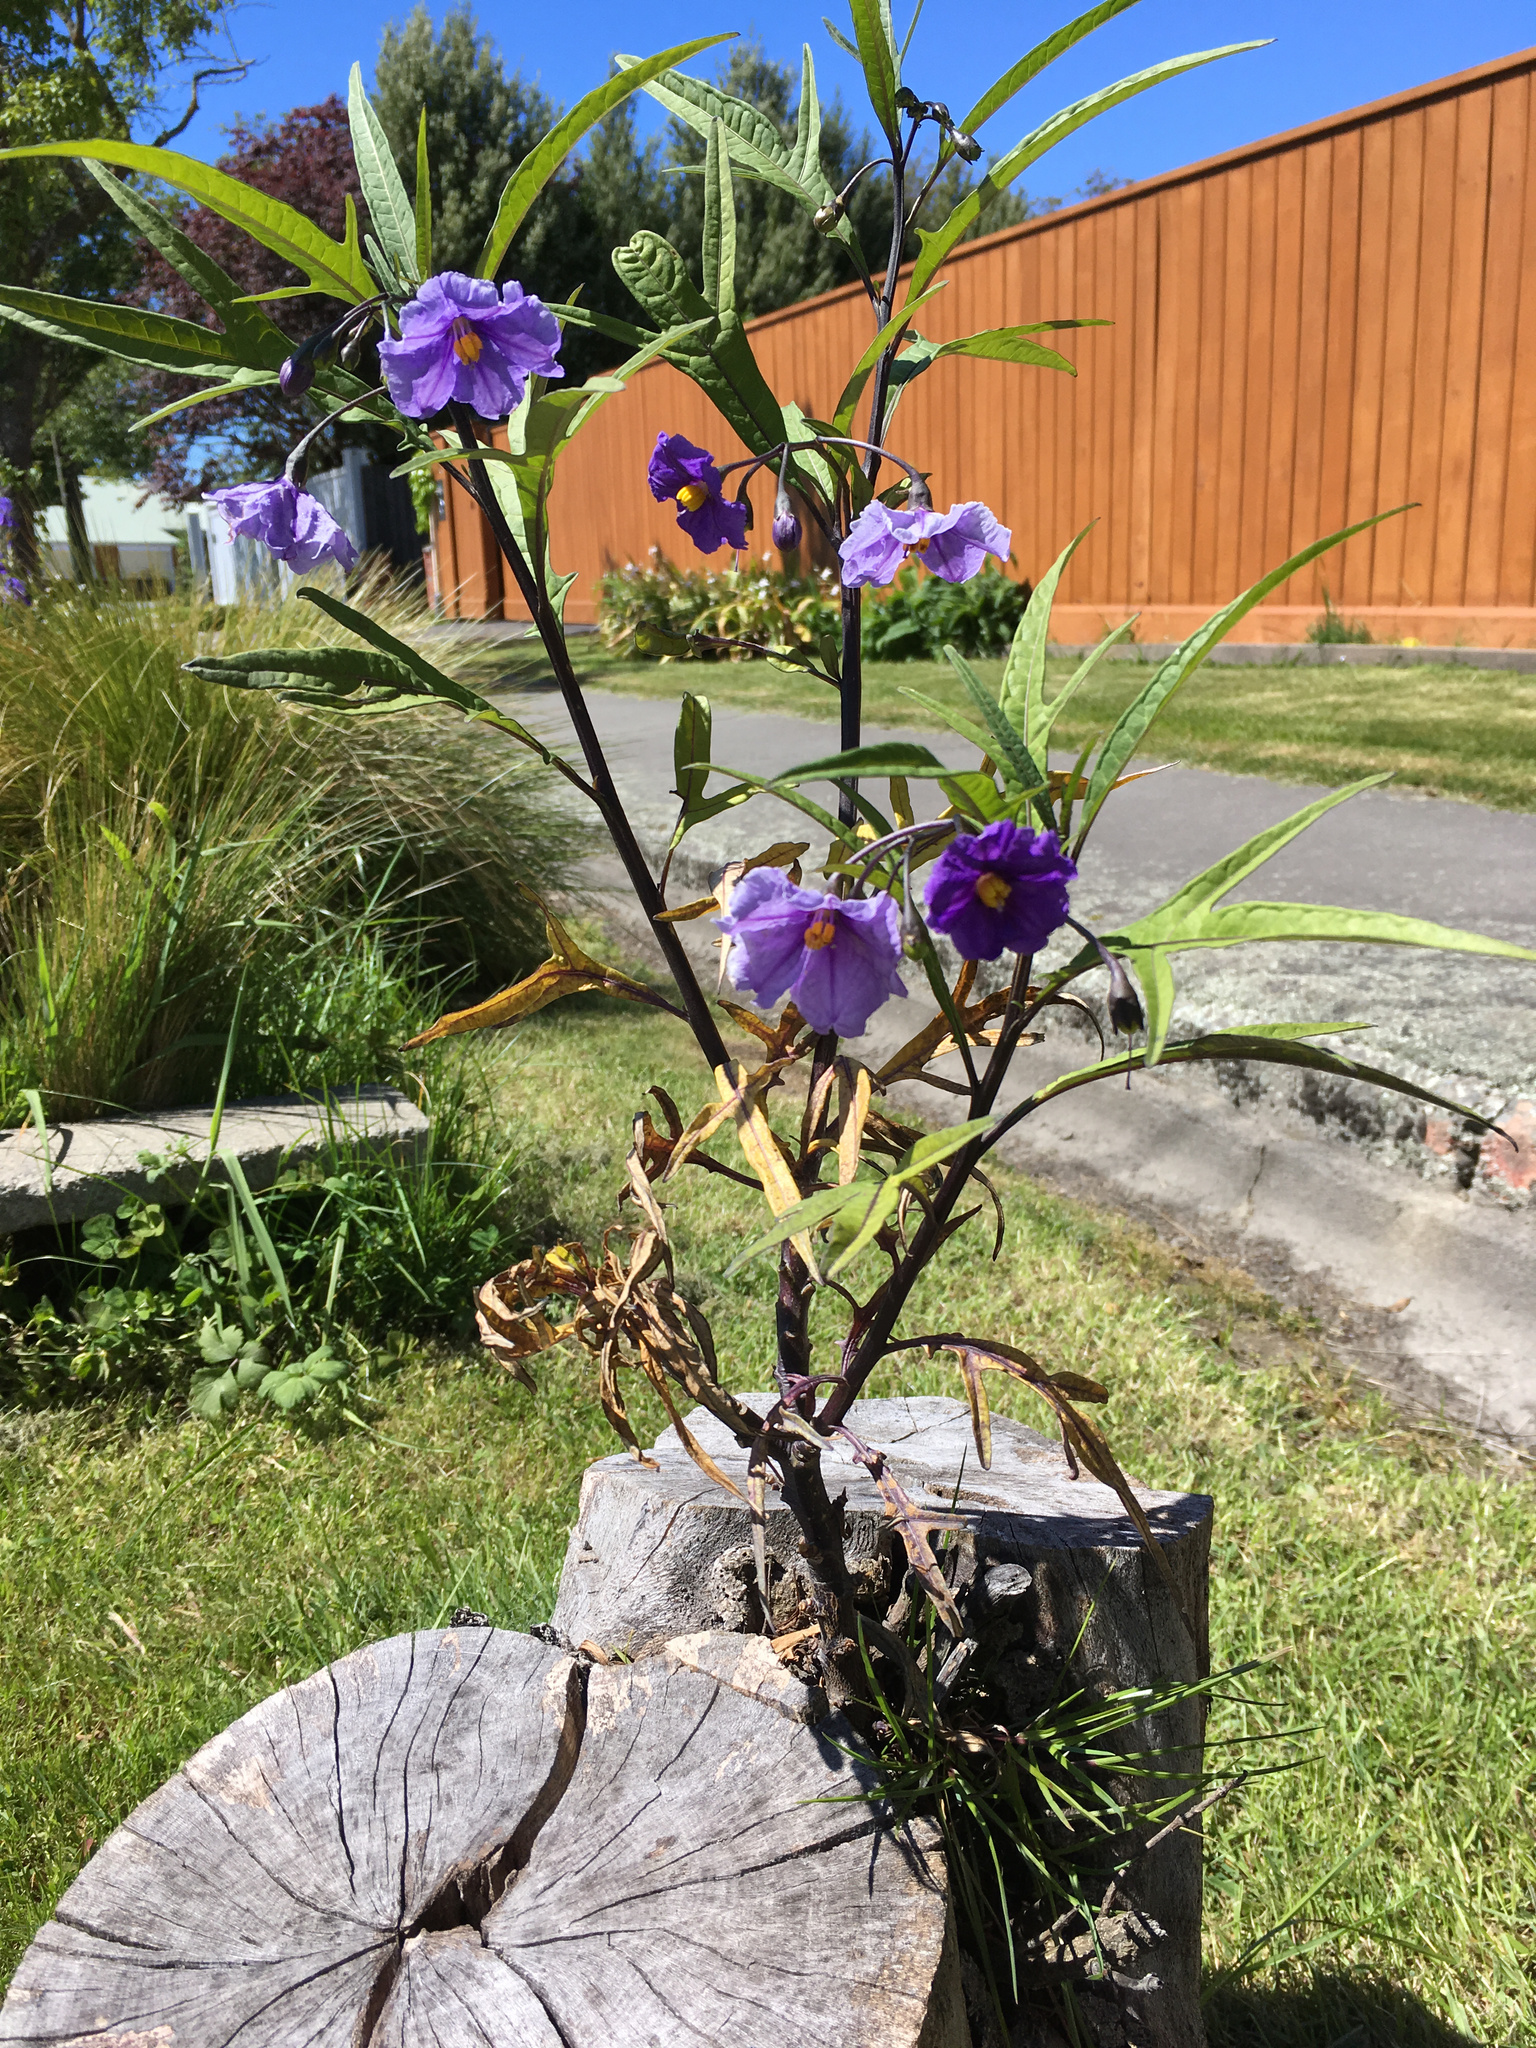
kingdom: Plantae
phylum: Tracheophyta
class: Magnoliopsida
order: Solanales
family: Solanaceae
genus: Solanum
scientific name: Solanum laciniatum
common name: Kangaroo-apple
